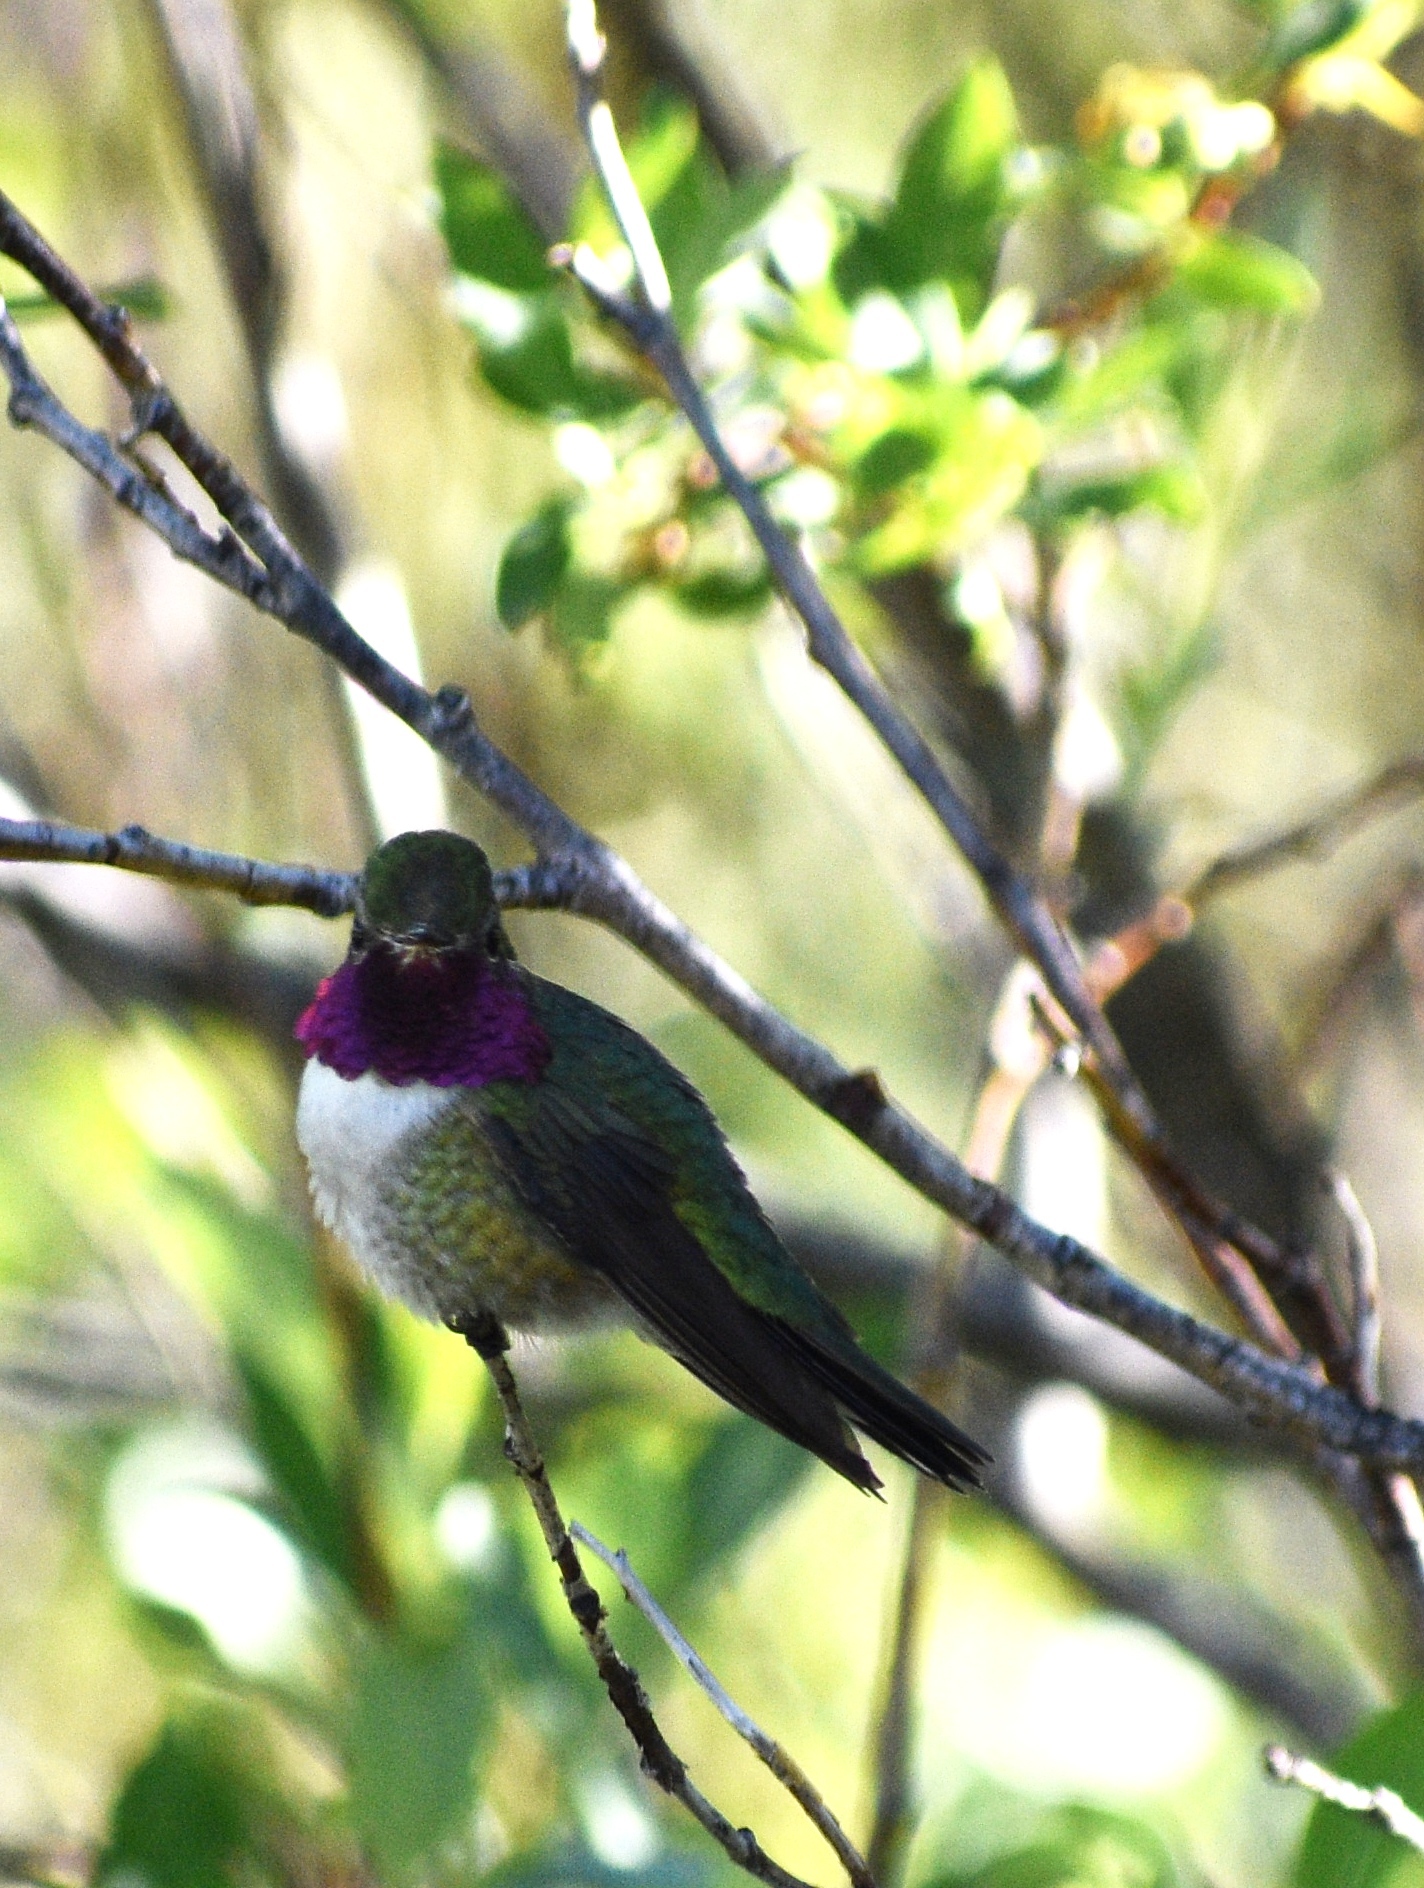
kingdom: Animalia
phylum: Chordata
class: Aves
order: Apodiformes
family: Trochilidae
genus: Selasphorus
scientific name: Selasphorus platycercus
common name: Broad-tailed hummingbird
